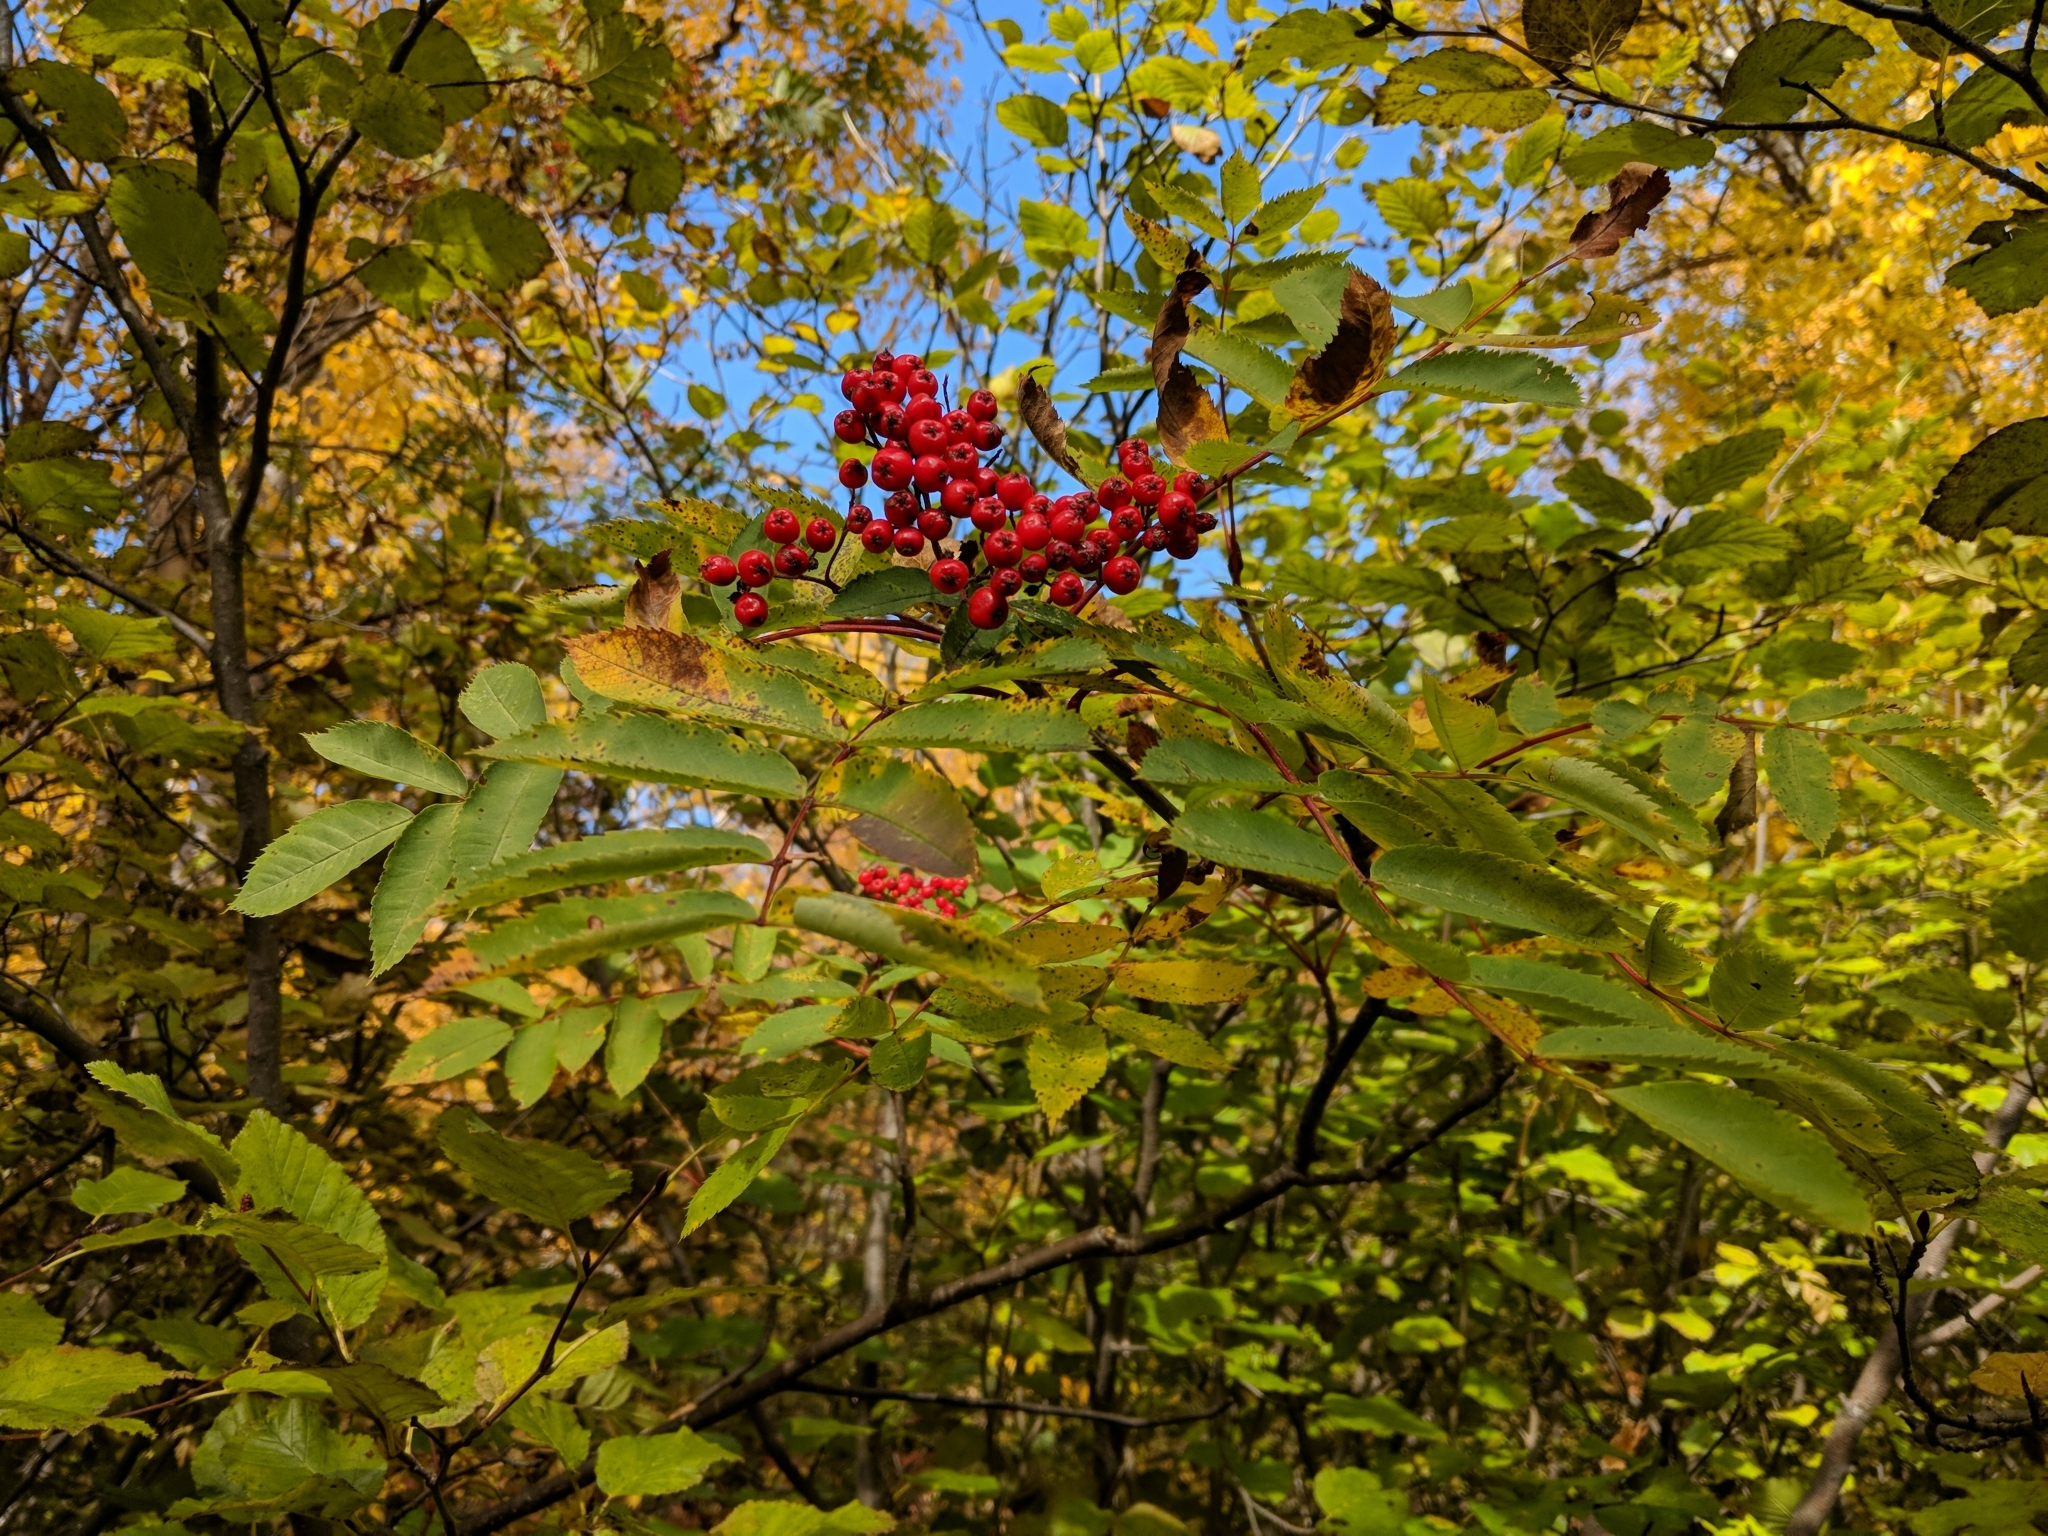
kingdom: Plantae
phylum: Tracheophyta
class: Magnoliopsida
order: Rosales
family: Rosaceae
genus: Sorbus
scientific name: Sorbus decora
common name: Northern mountain-ash
